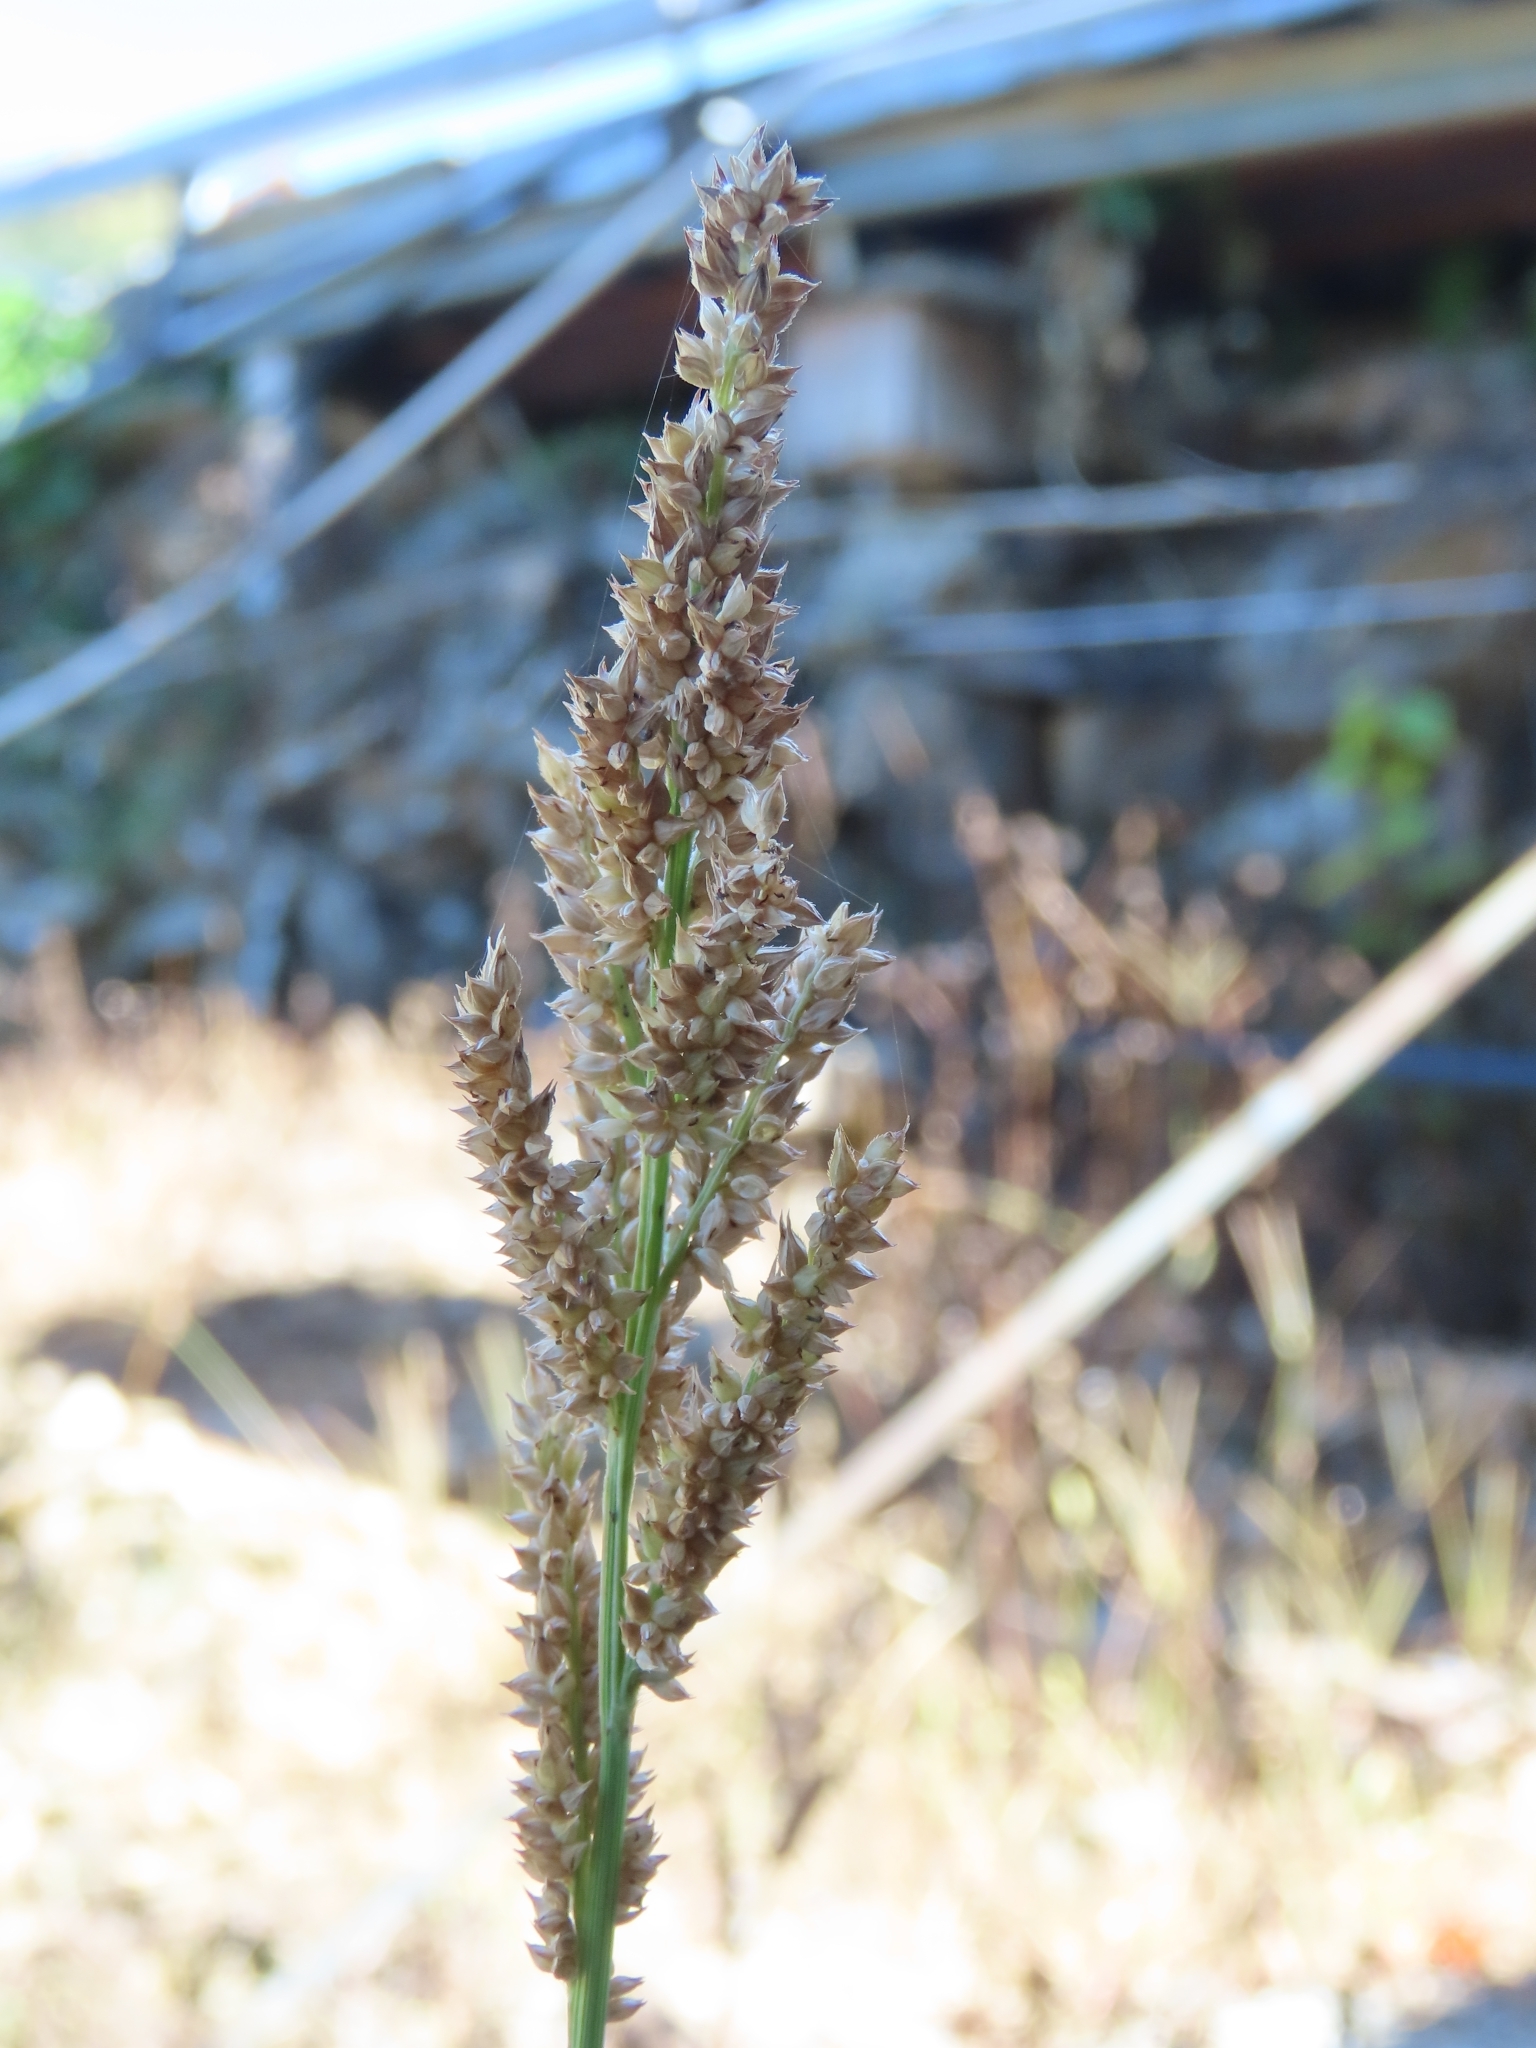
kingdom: Plantae
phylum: Tracheophyta
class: Liliopsida
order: Poales
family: Poaceae
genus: Echinochloa
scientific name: Echinochloa crus-galli
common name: Cockspur
